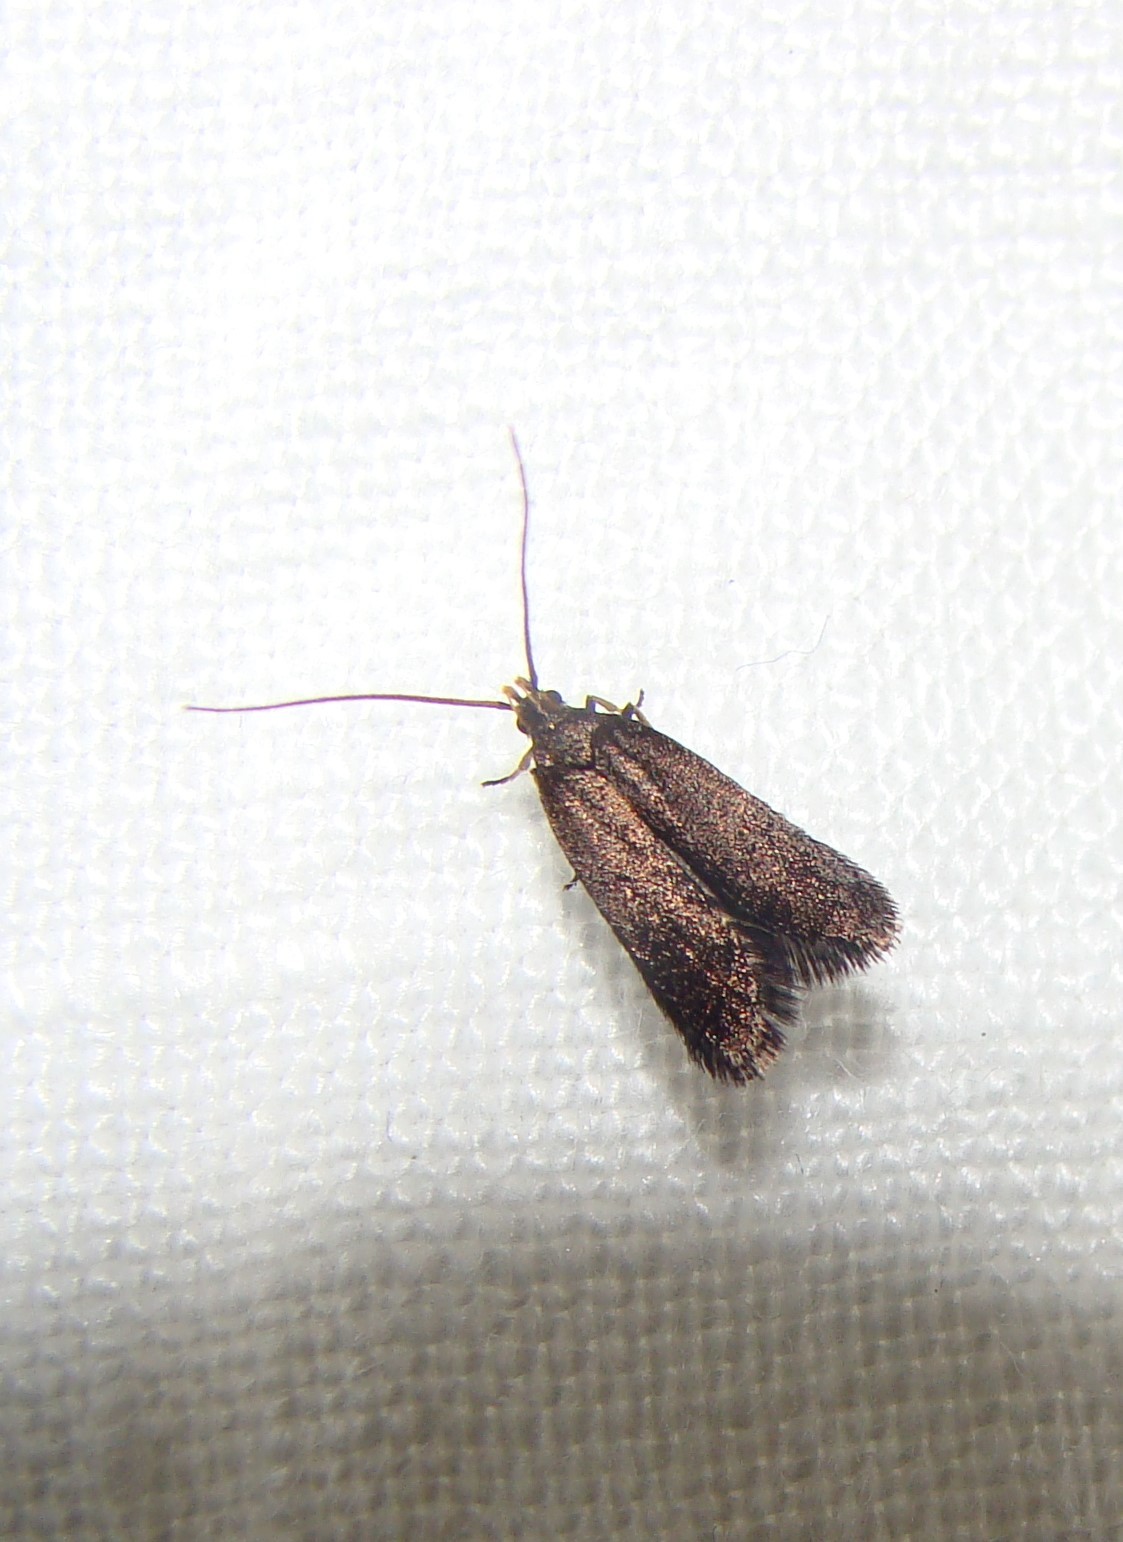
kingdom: Animalia
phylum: Arthropoda
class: Insecta
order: Lepidoptera
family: Lecithoceridae
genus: Lecithocera
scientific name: Lecithocera micromela
